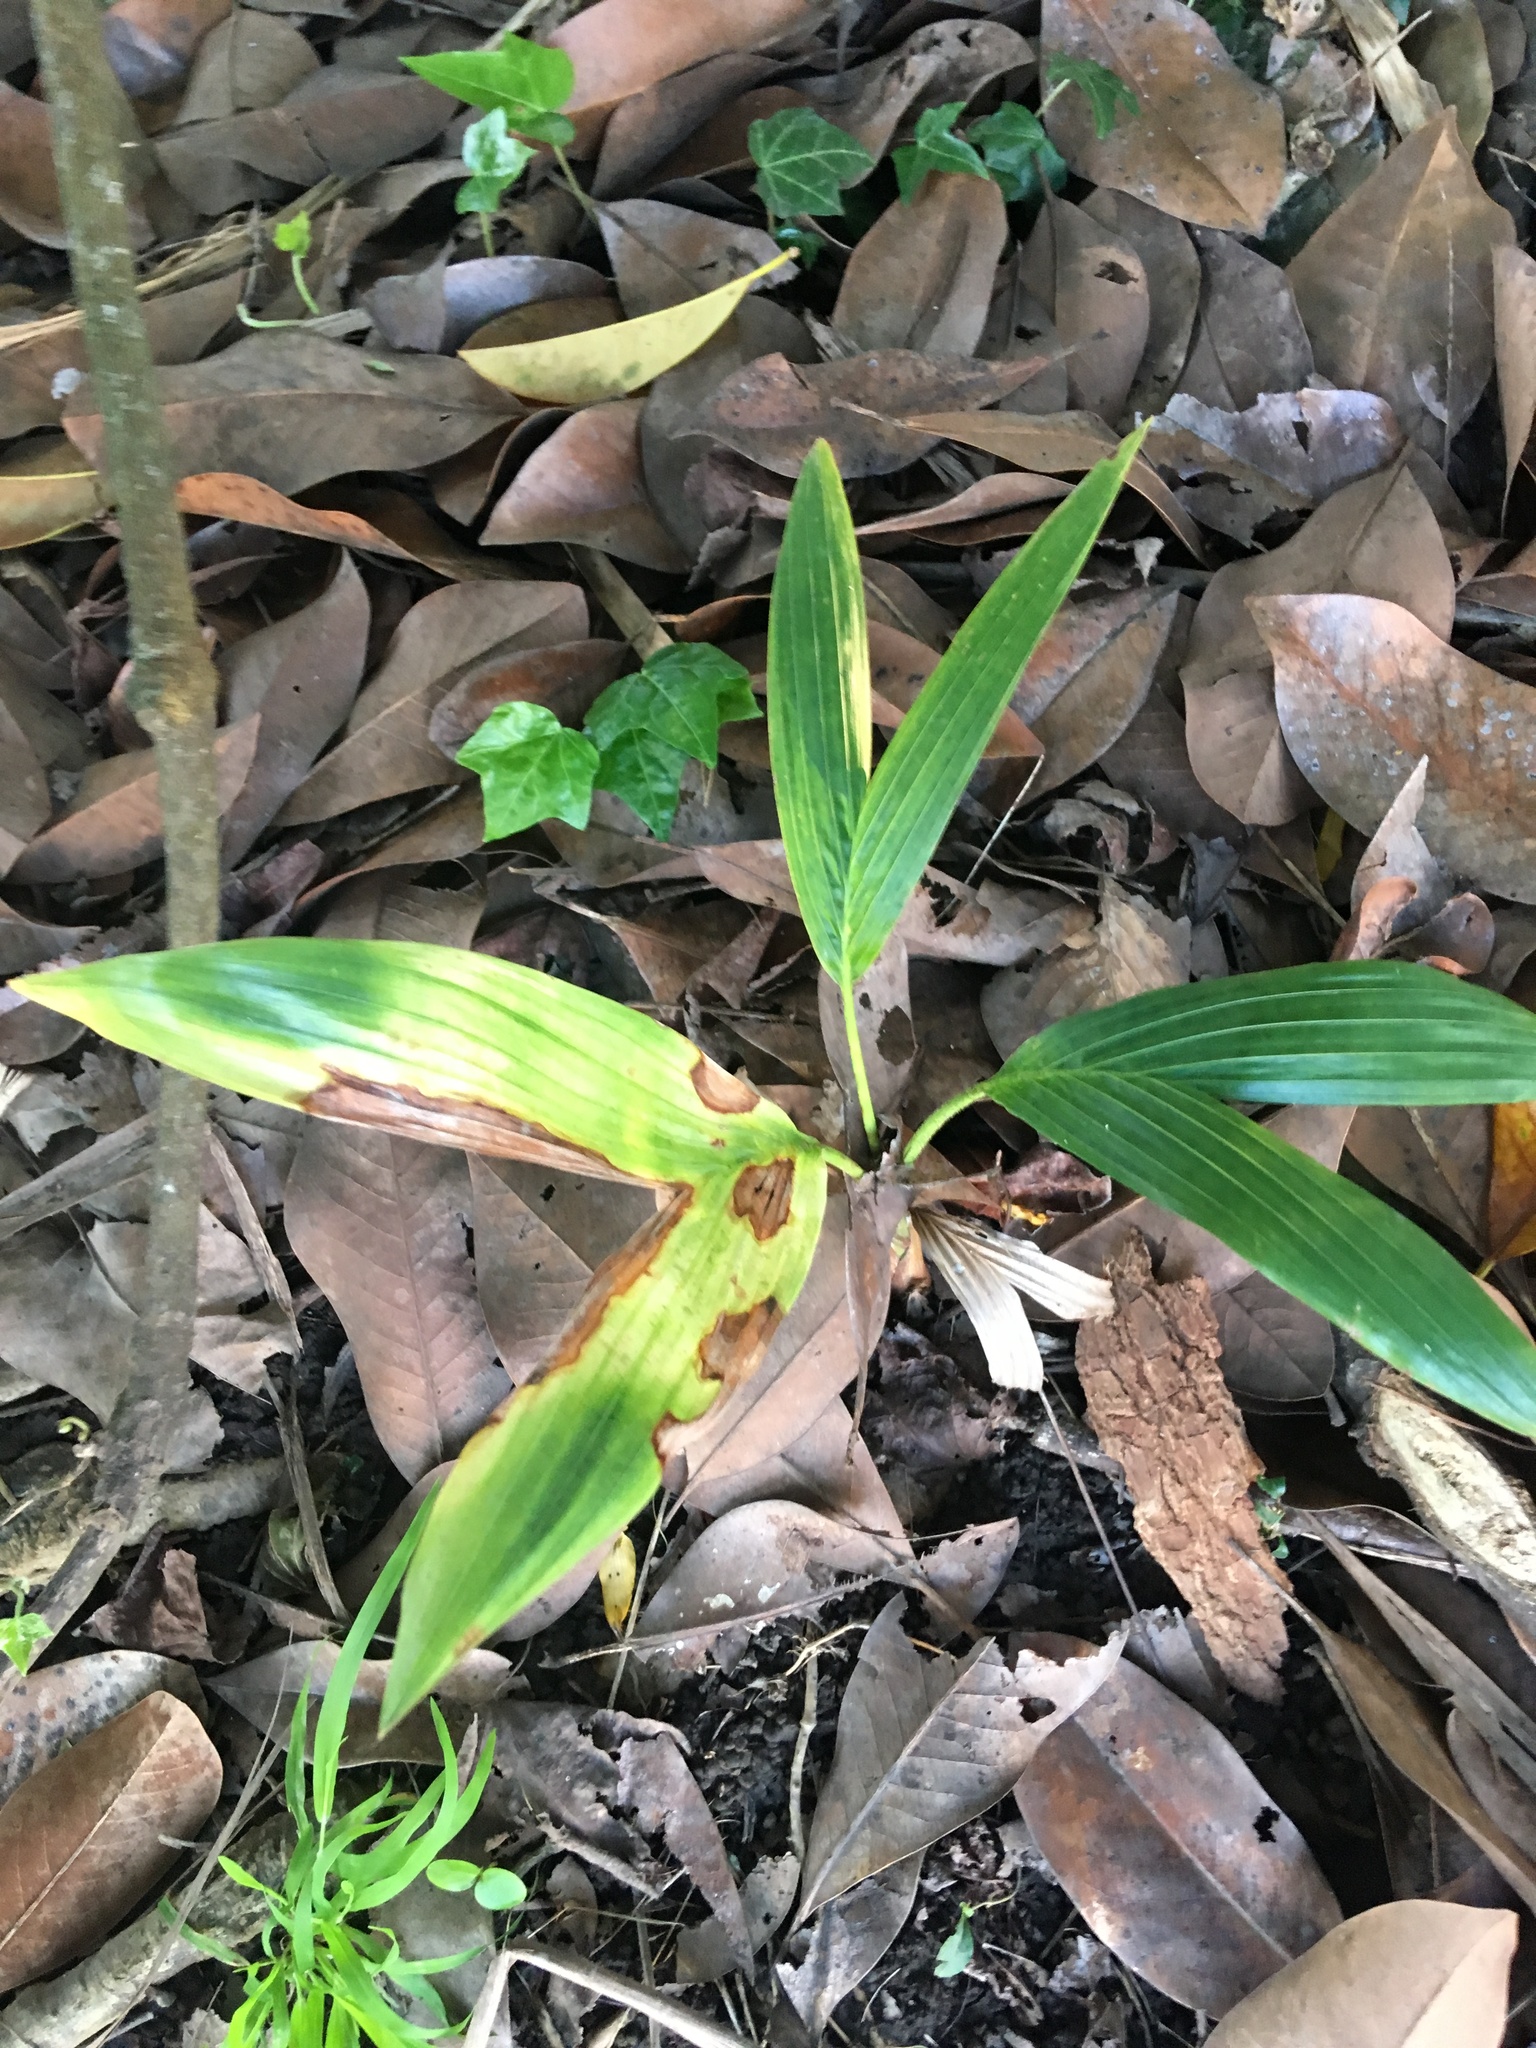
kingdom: Plantae
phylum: Tracheophyta
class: Liliopsida
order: Arecales
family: Arecaceae
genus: Archontophoenix
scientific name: Archontophoenix cunninghamiana
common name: Piccabeen bangalow palm
